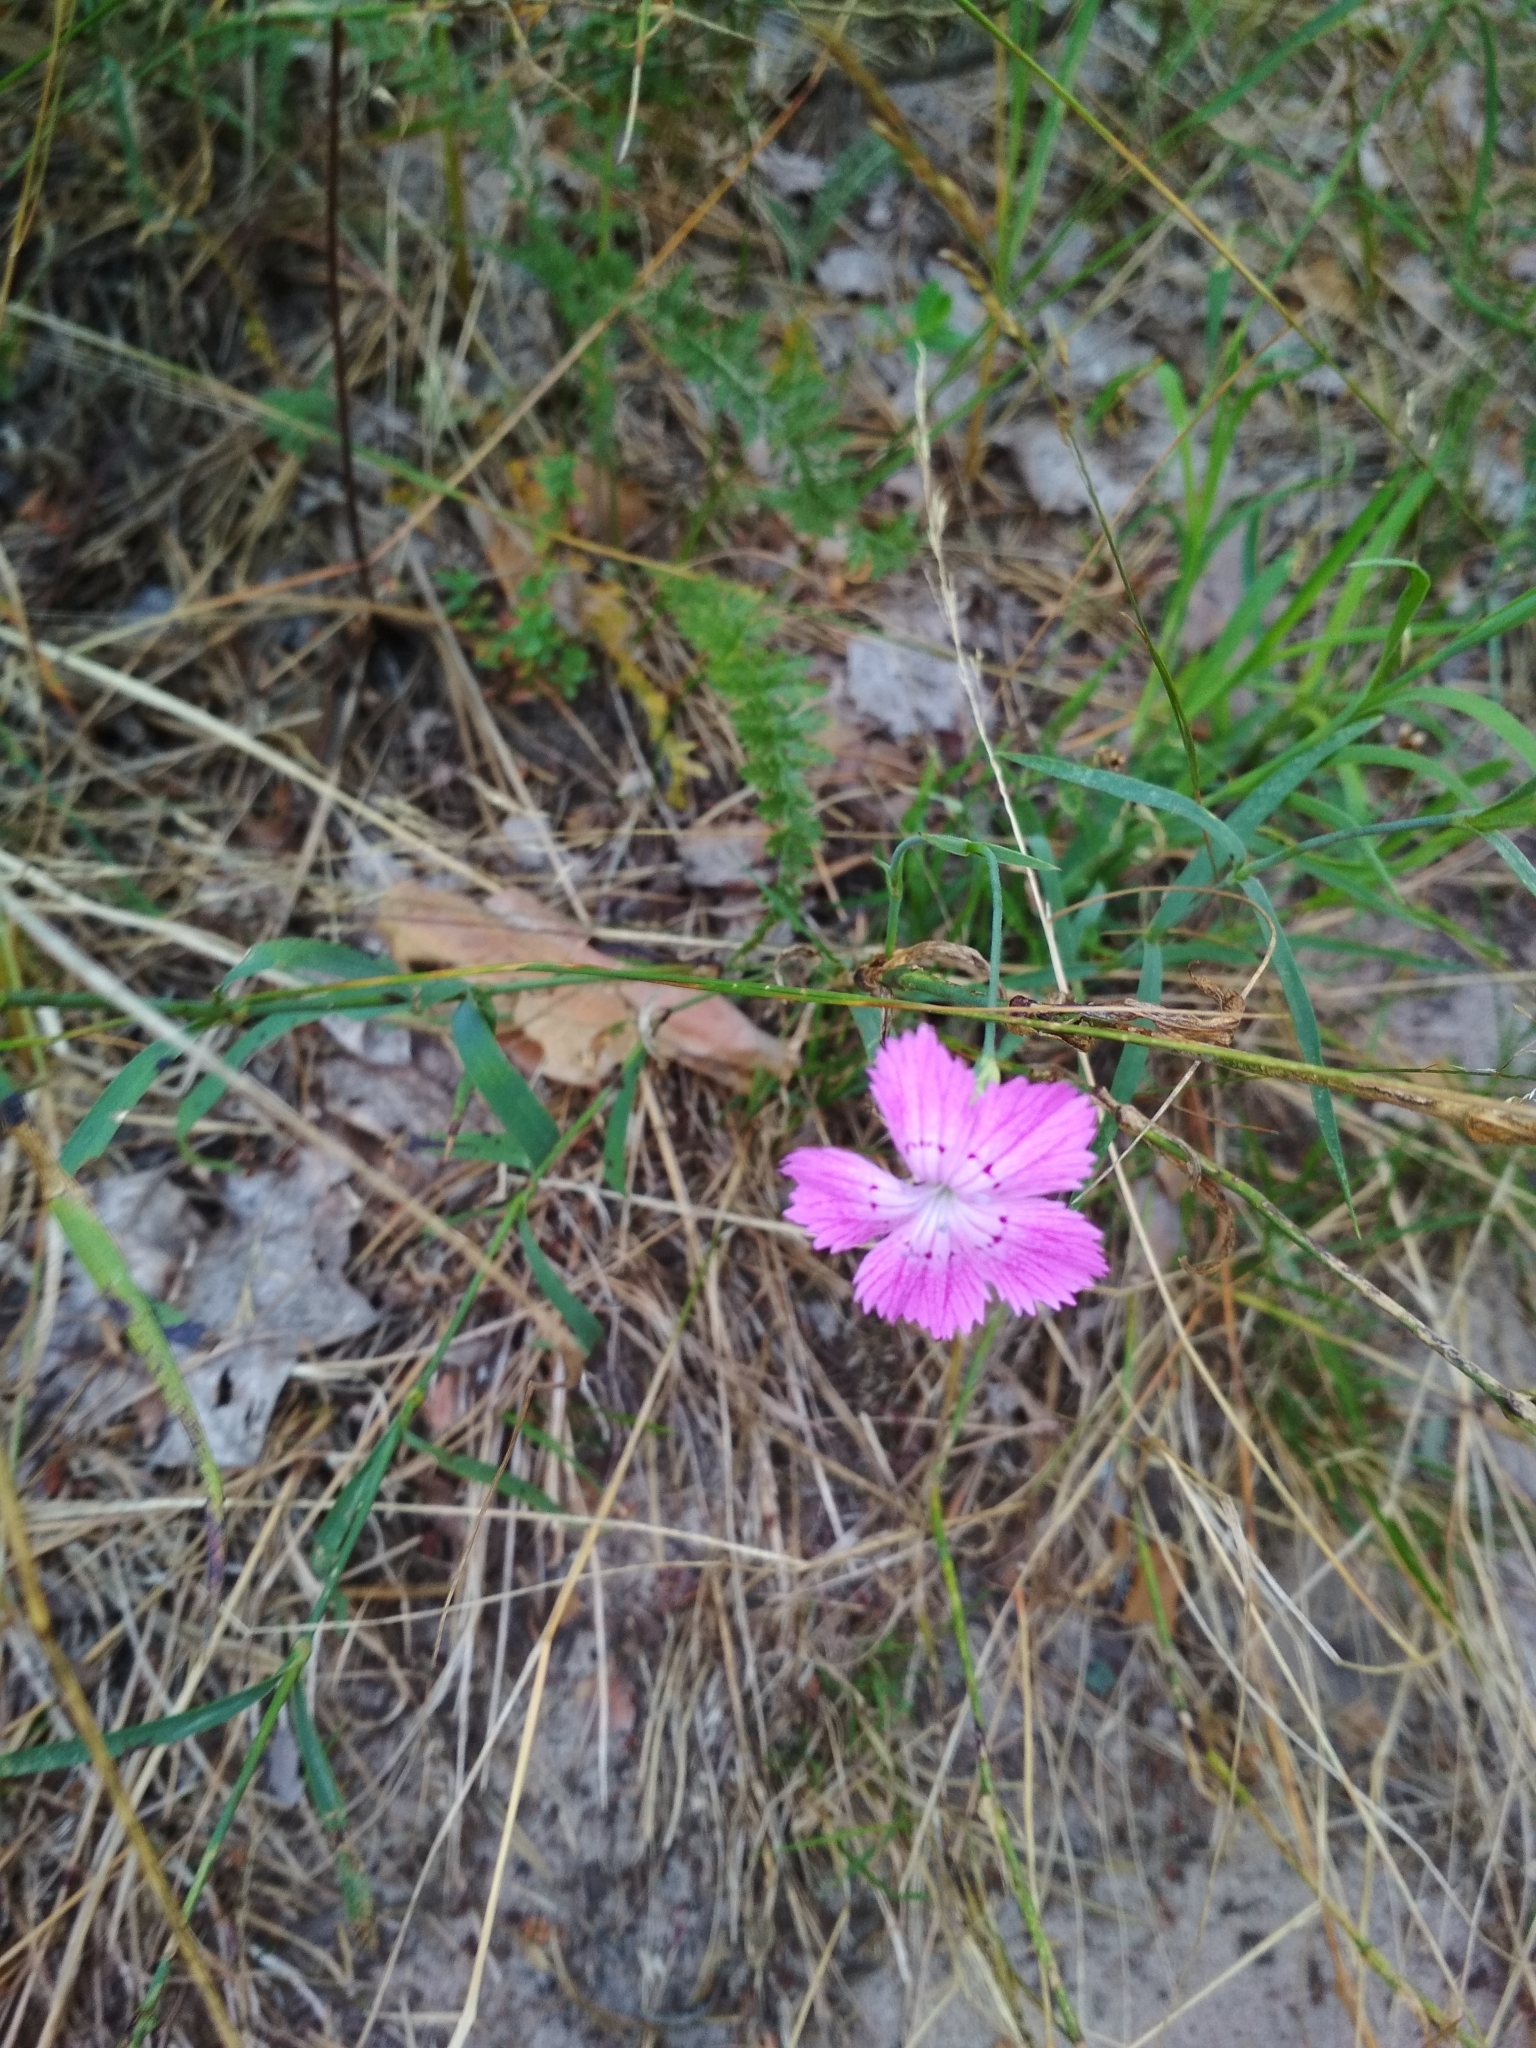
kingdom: Plantae
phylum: Tracheophyta
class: Magnoliopsida
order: Caryophyllales
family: Caryophyllaceae
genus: Dianthus
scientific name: Dianthus chinensis
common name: Rainbow pink
